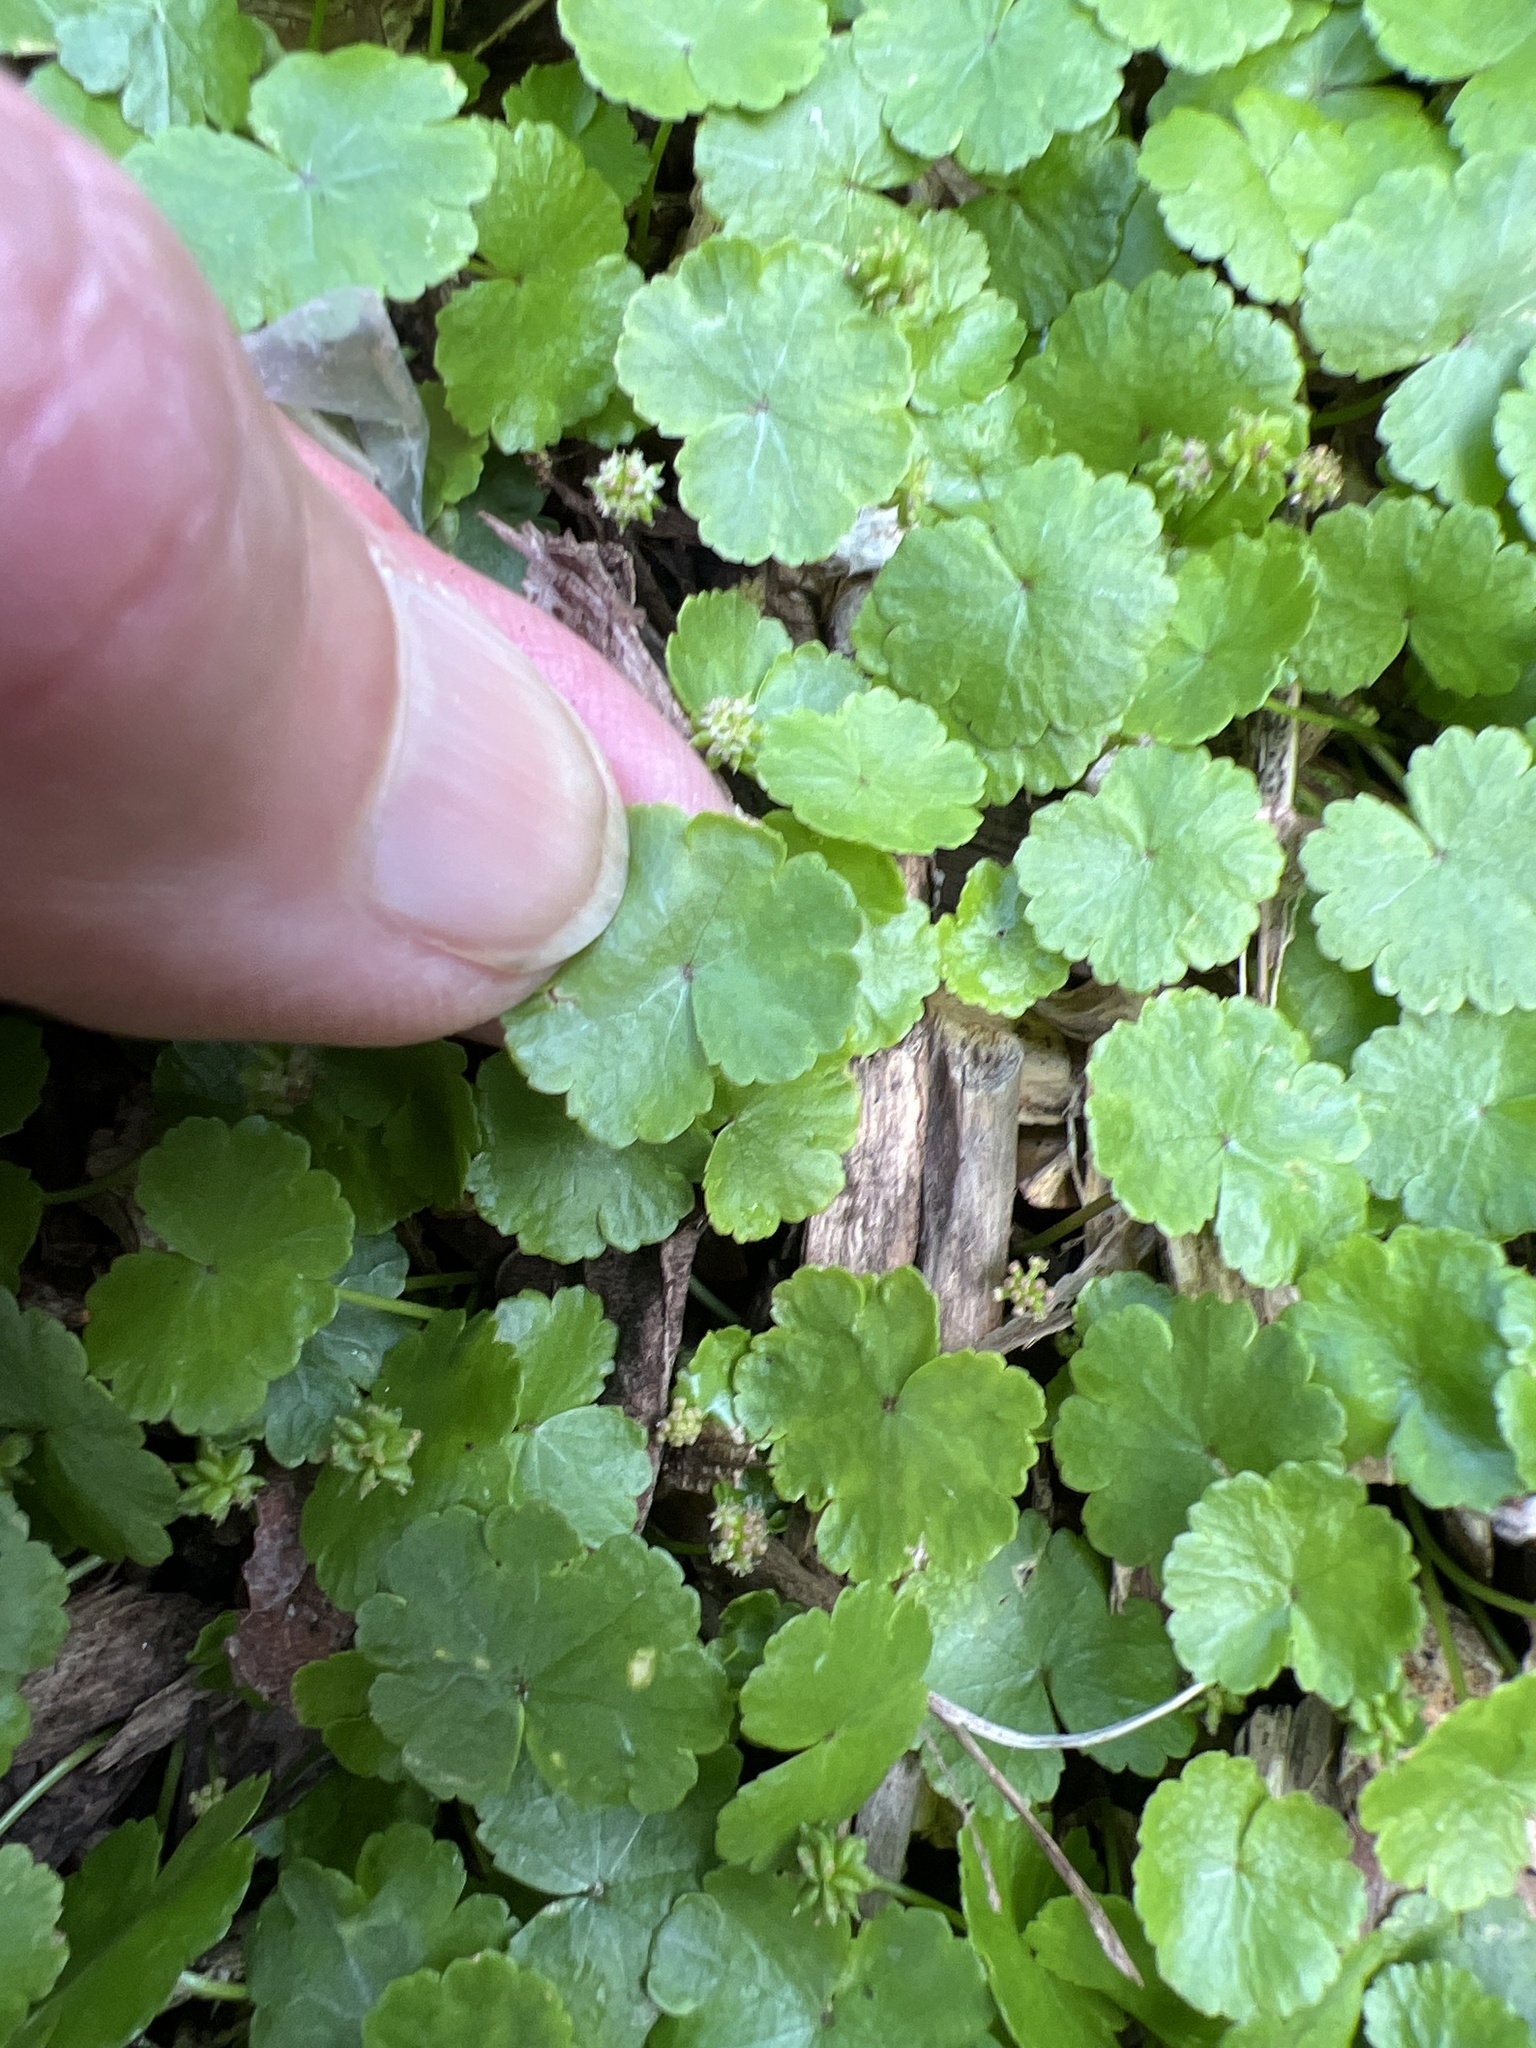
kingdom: Plantae
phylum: Tracheophyta
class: Magnoliopsida
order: Apiales
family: Araliaceae
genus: Hydrocotyle
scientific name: Hydrocotyle sibthorpioides
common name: Lawn marshpennywort
